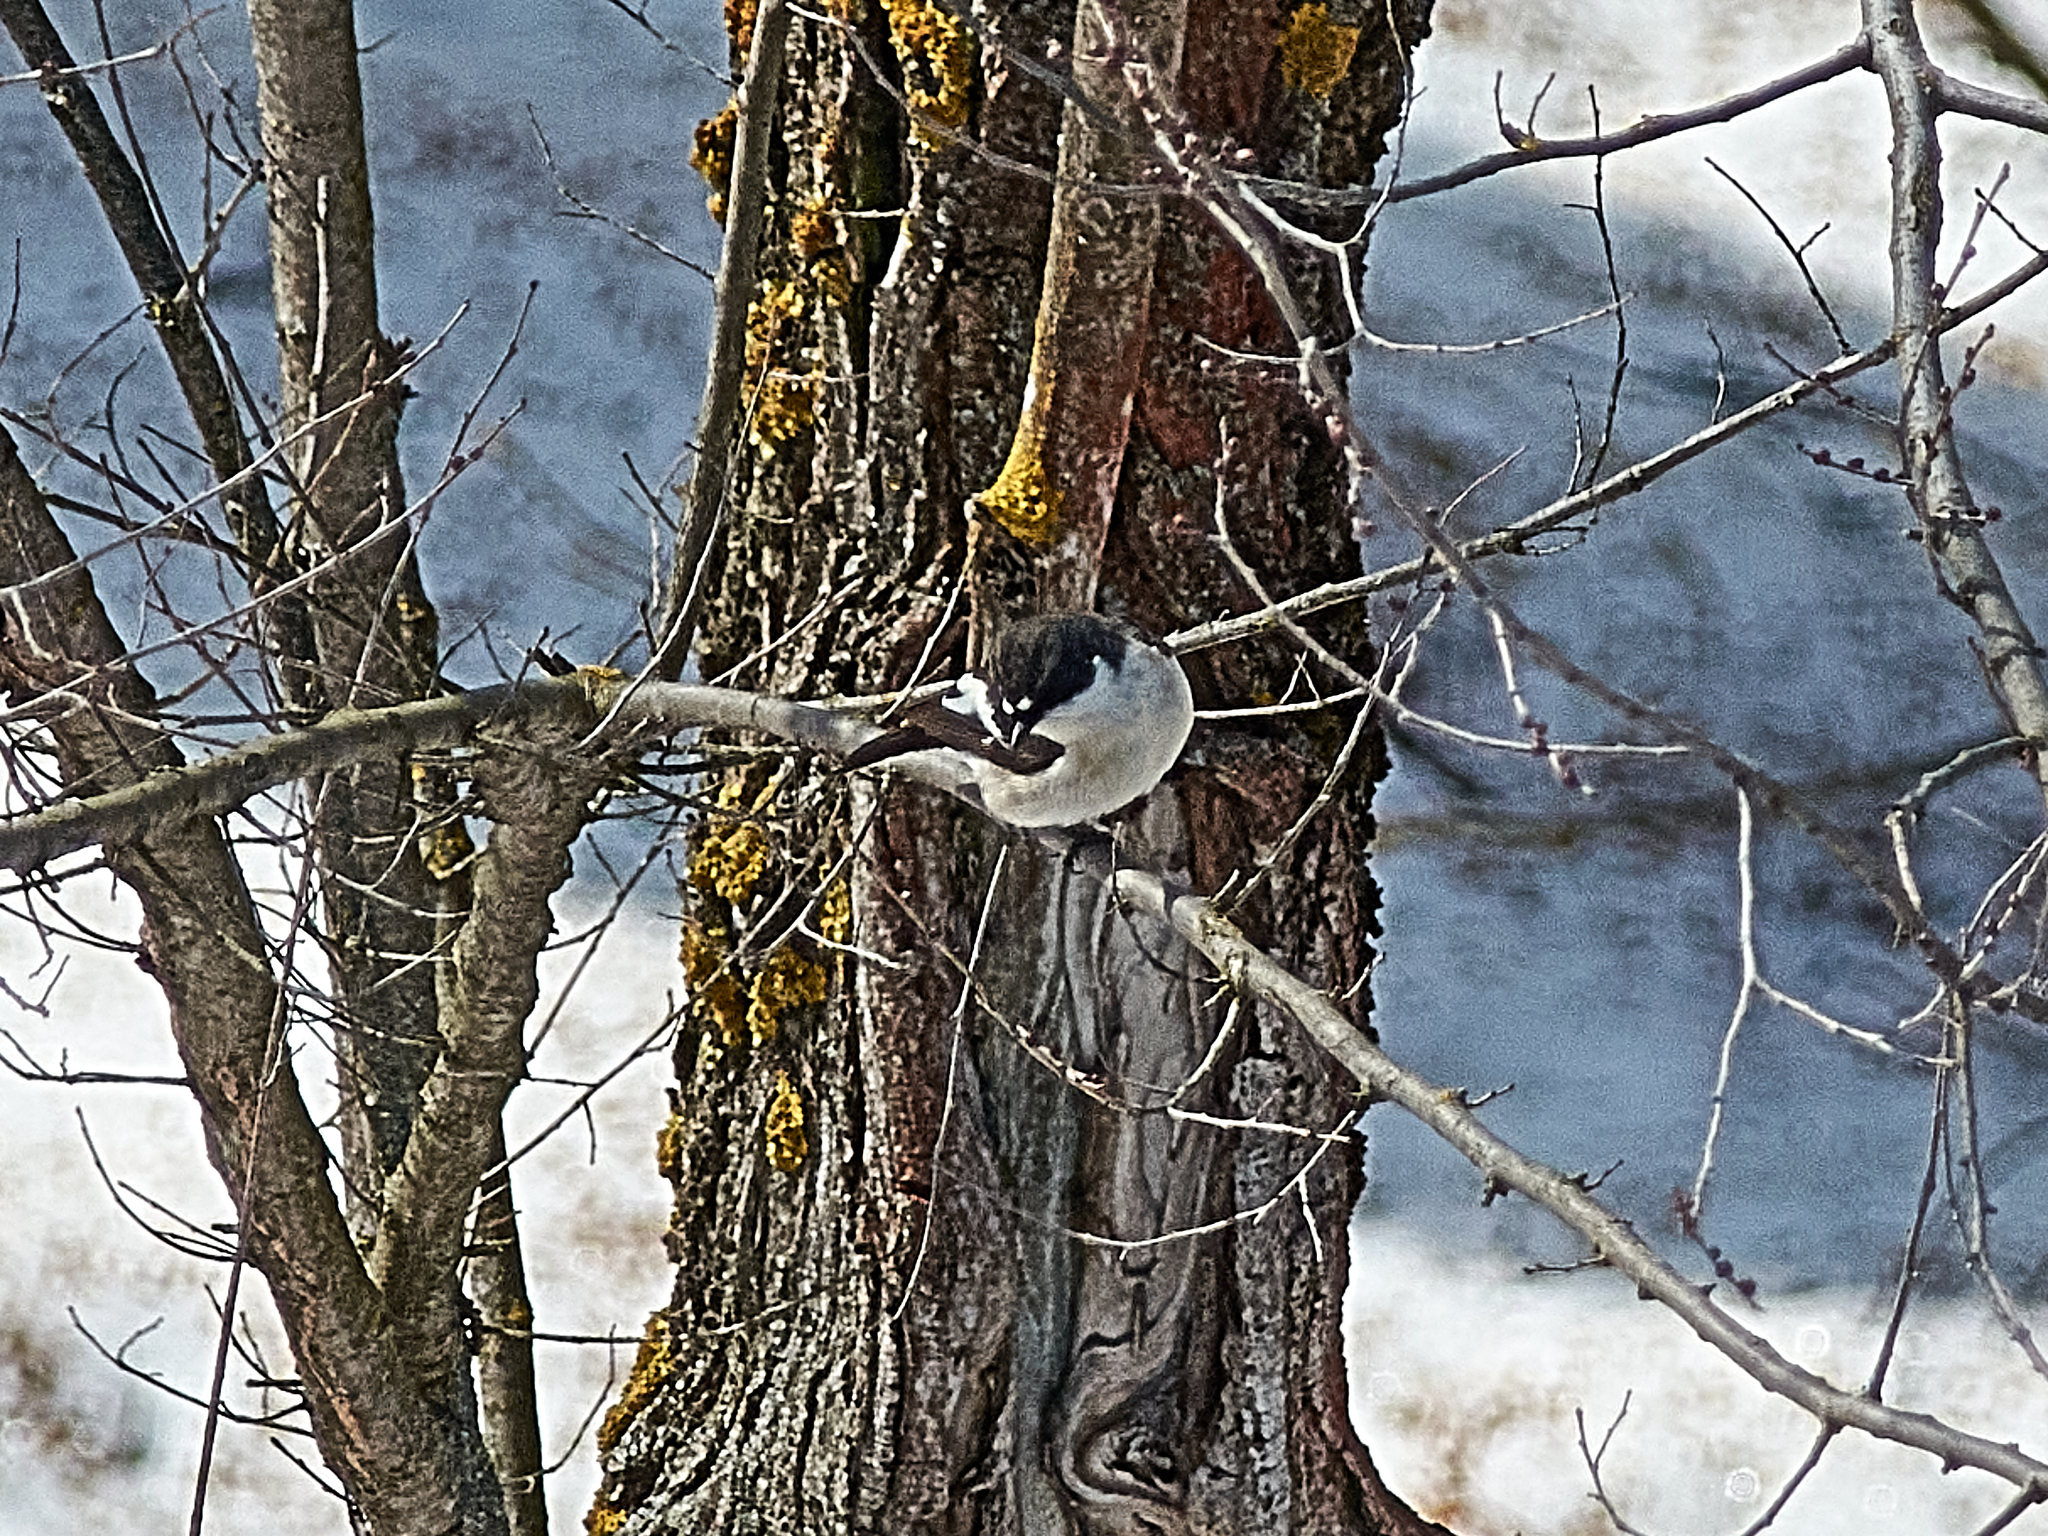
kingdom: Animalia
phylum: Chordata
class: Aves
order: Passeriformes
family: Muscicapidae
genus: Ficedula
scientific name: Ficedula hypoleuca
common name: European pied flycatcher
